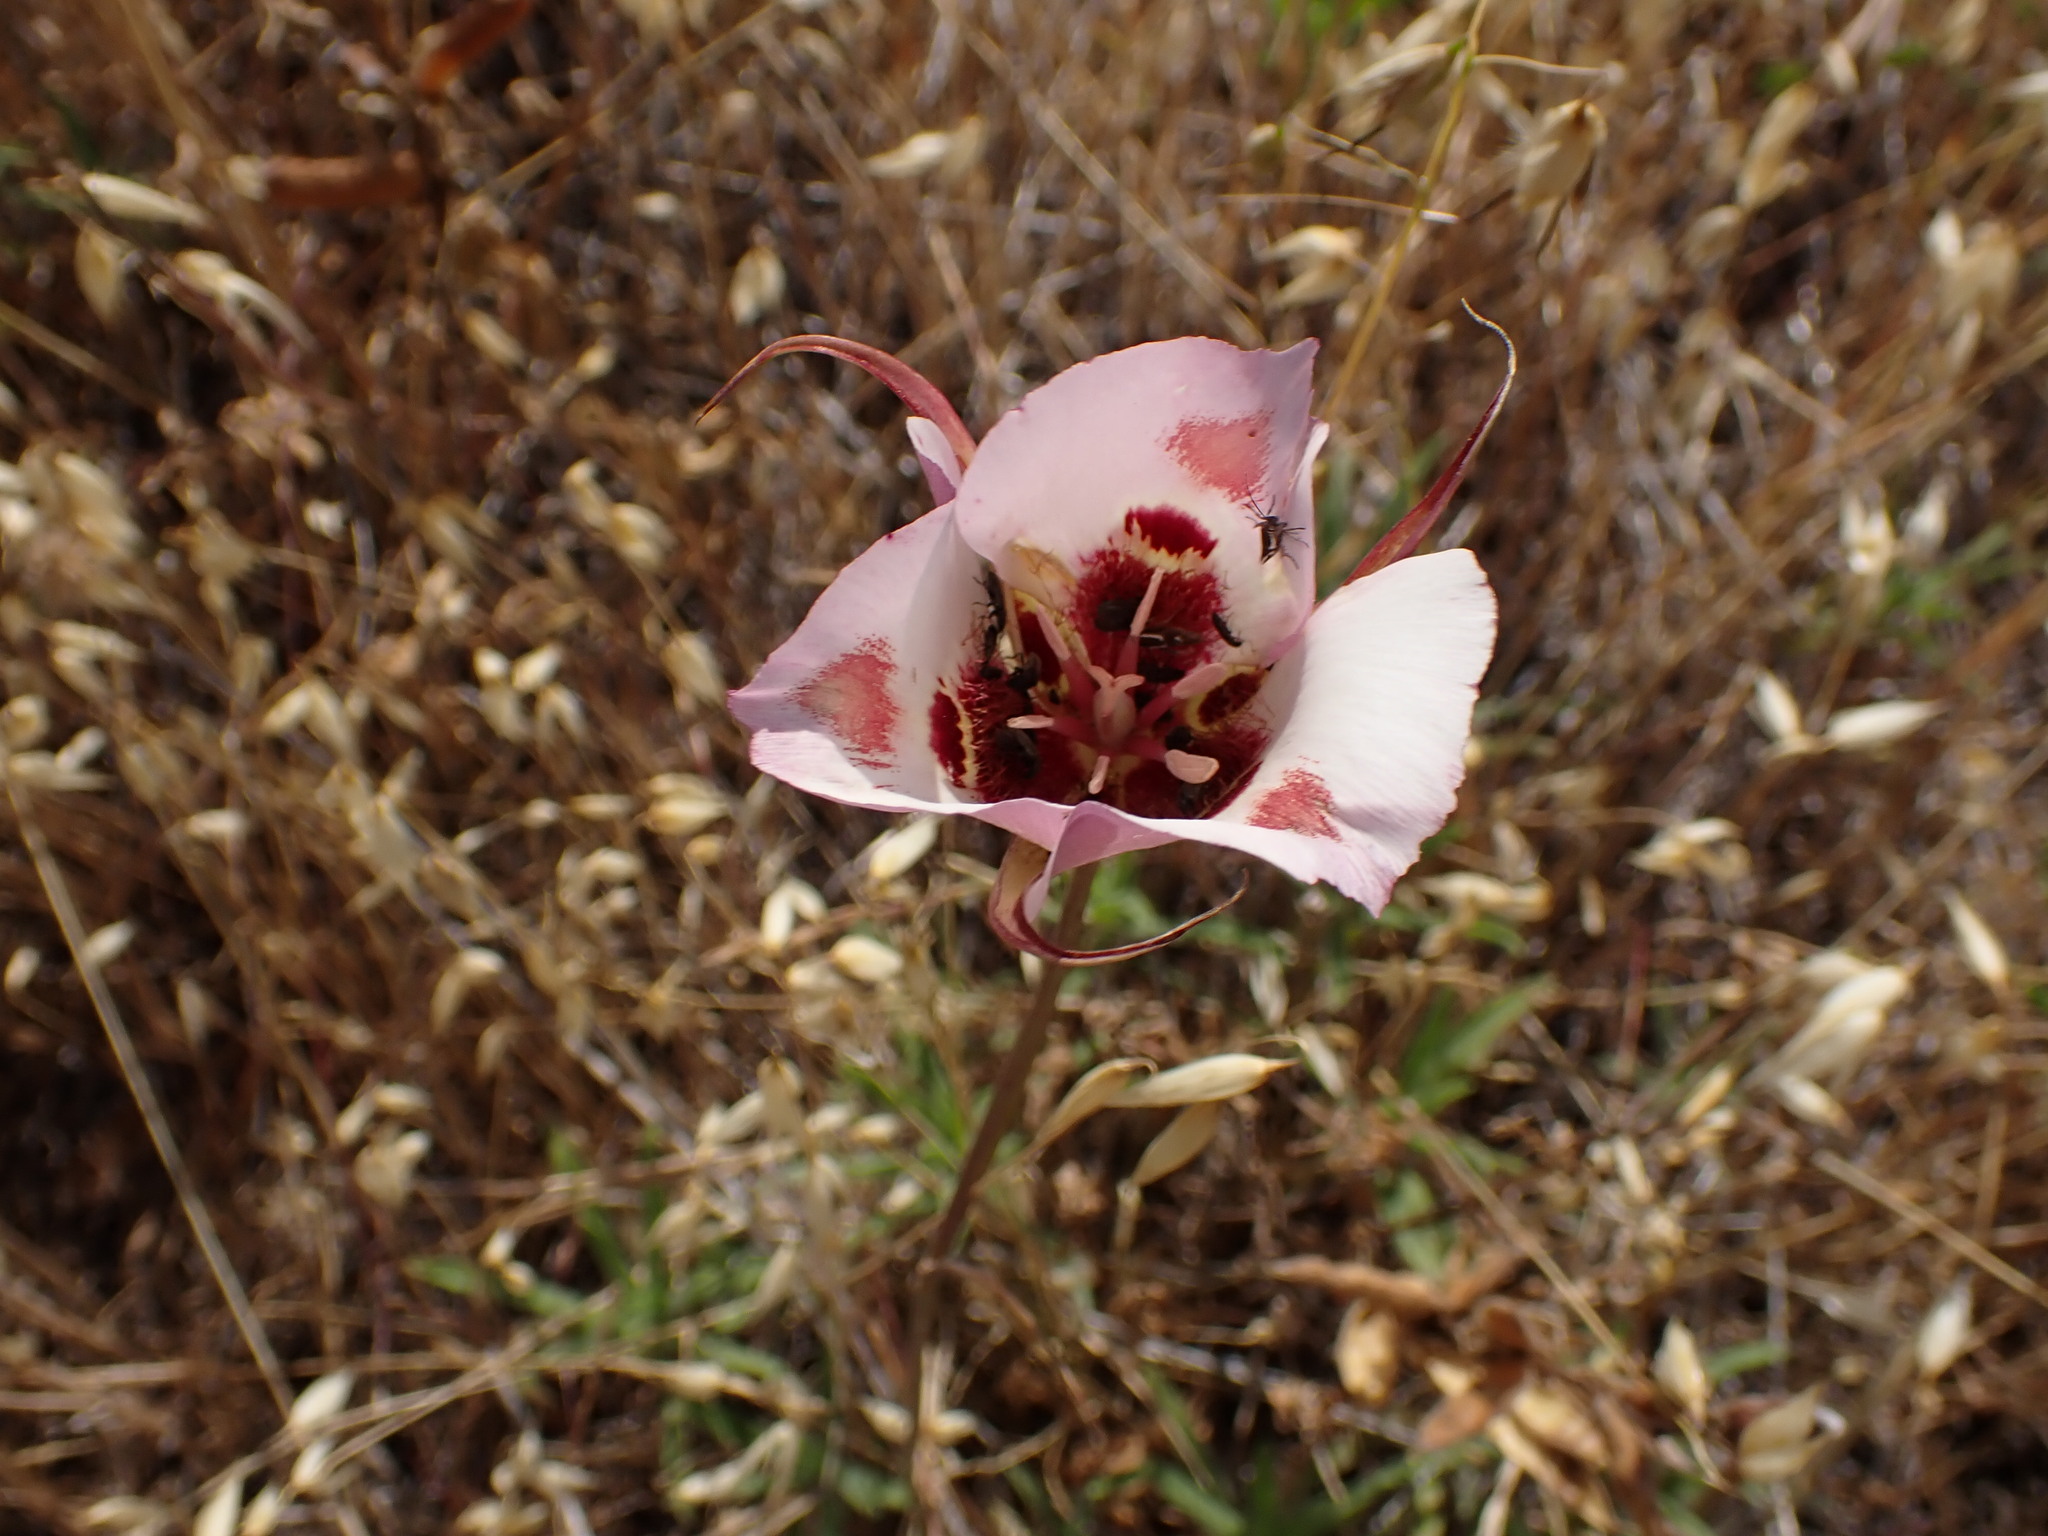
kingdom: Plantae
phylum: Tracheophyta
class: Liliopsida
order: Liliales
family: Liliaceae
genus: Calochortus
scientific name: Calochortus venustus
